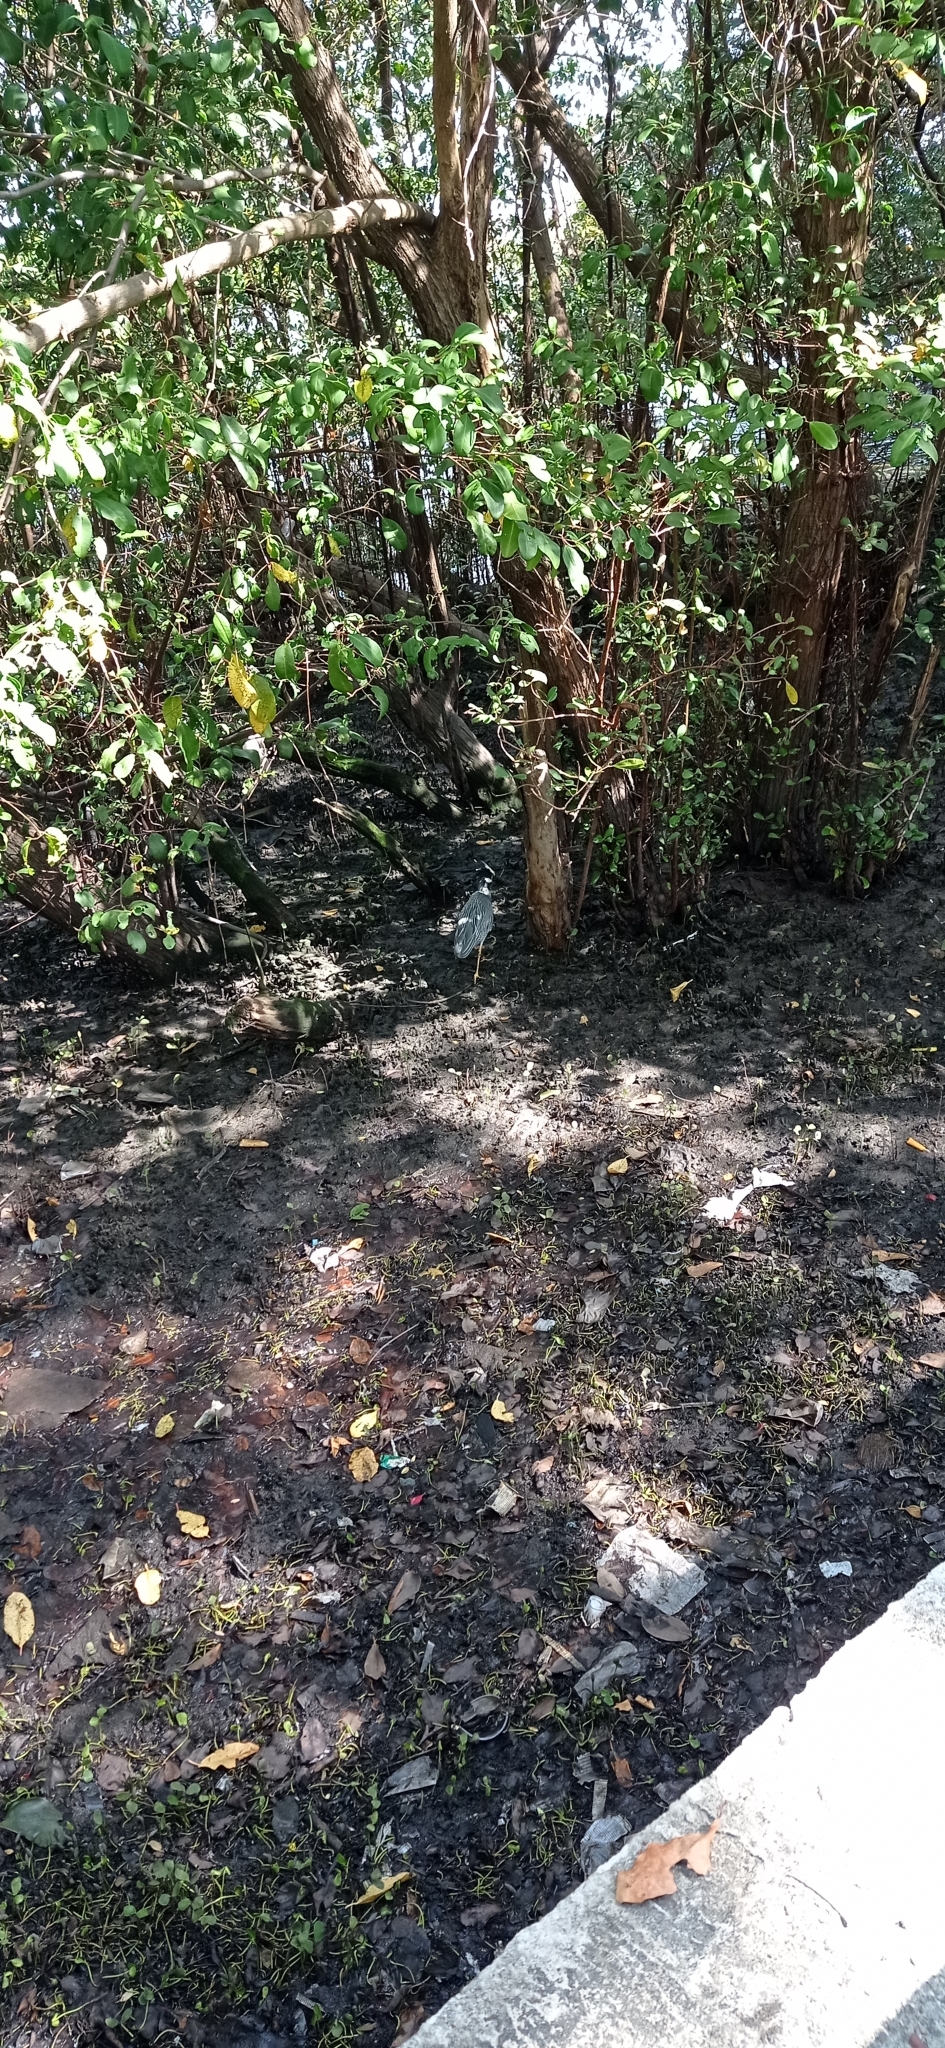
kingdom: Animalia
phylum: Chordata
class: Aves
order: Pelecaniformes
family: Ardeidae
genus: Nyctanassa
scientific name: Nyctanassa violacea
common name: Yellow-crowned night heron
